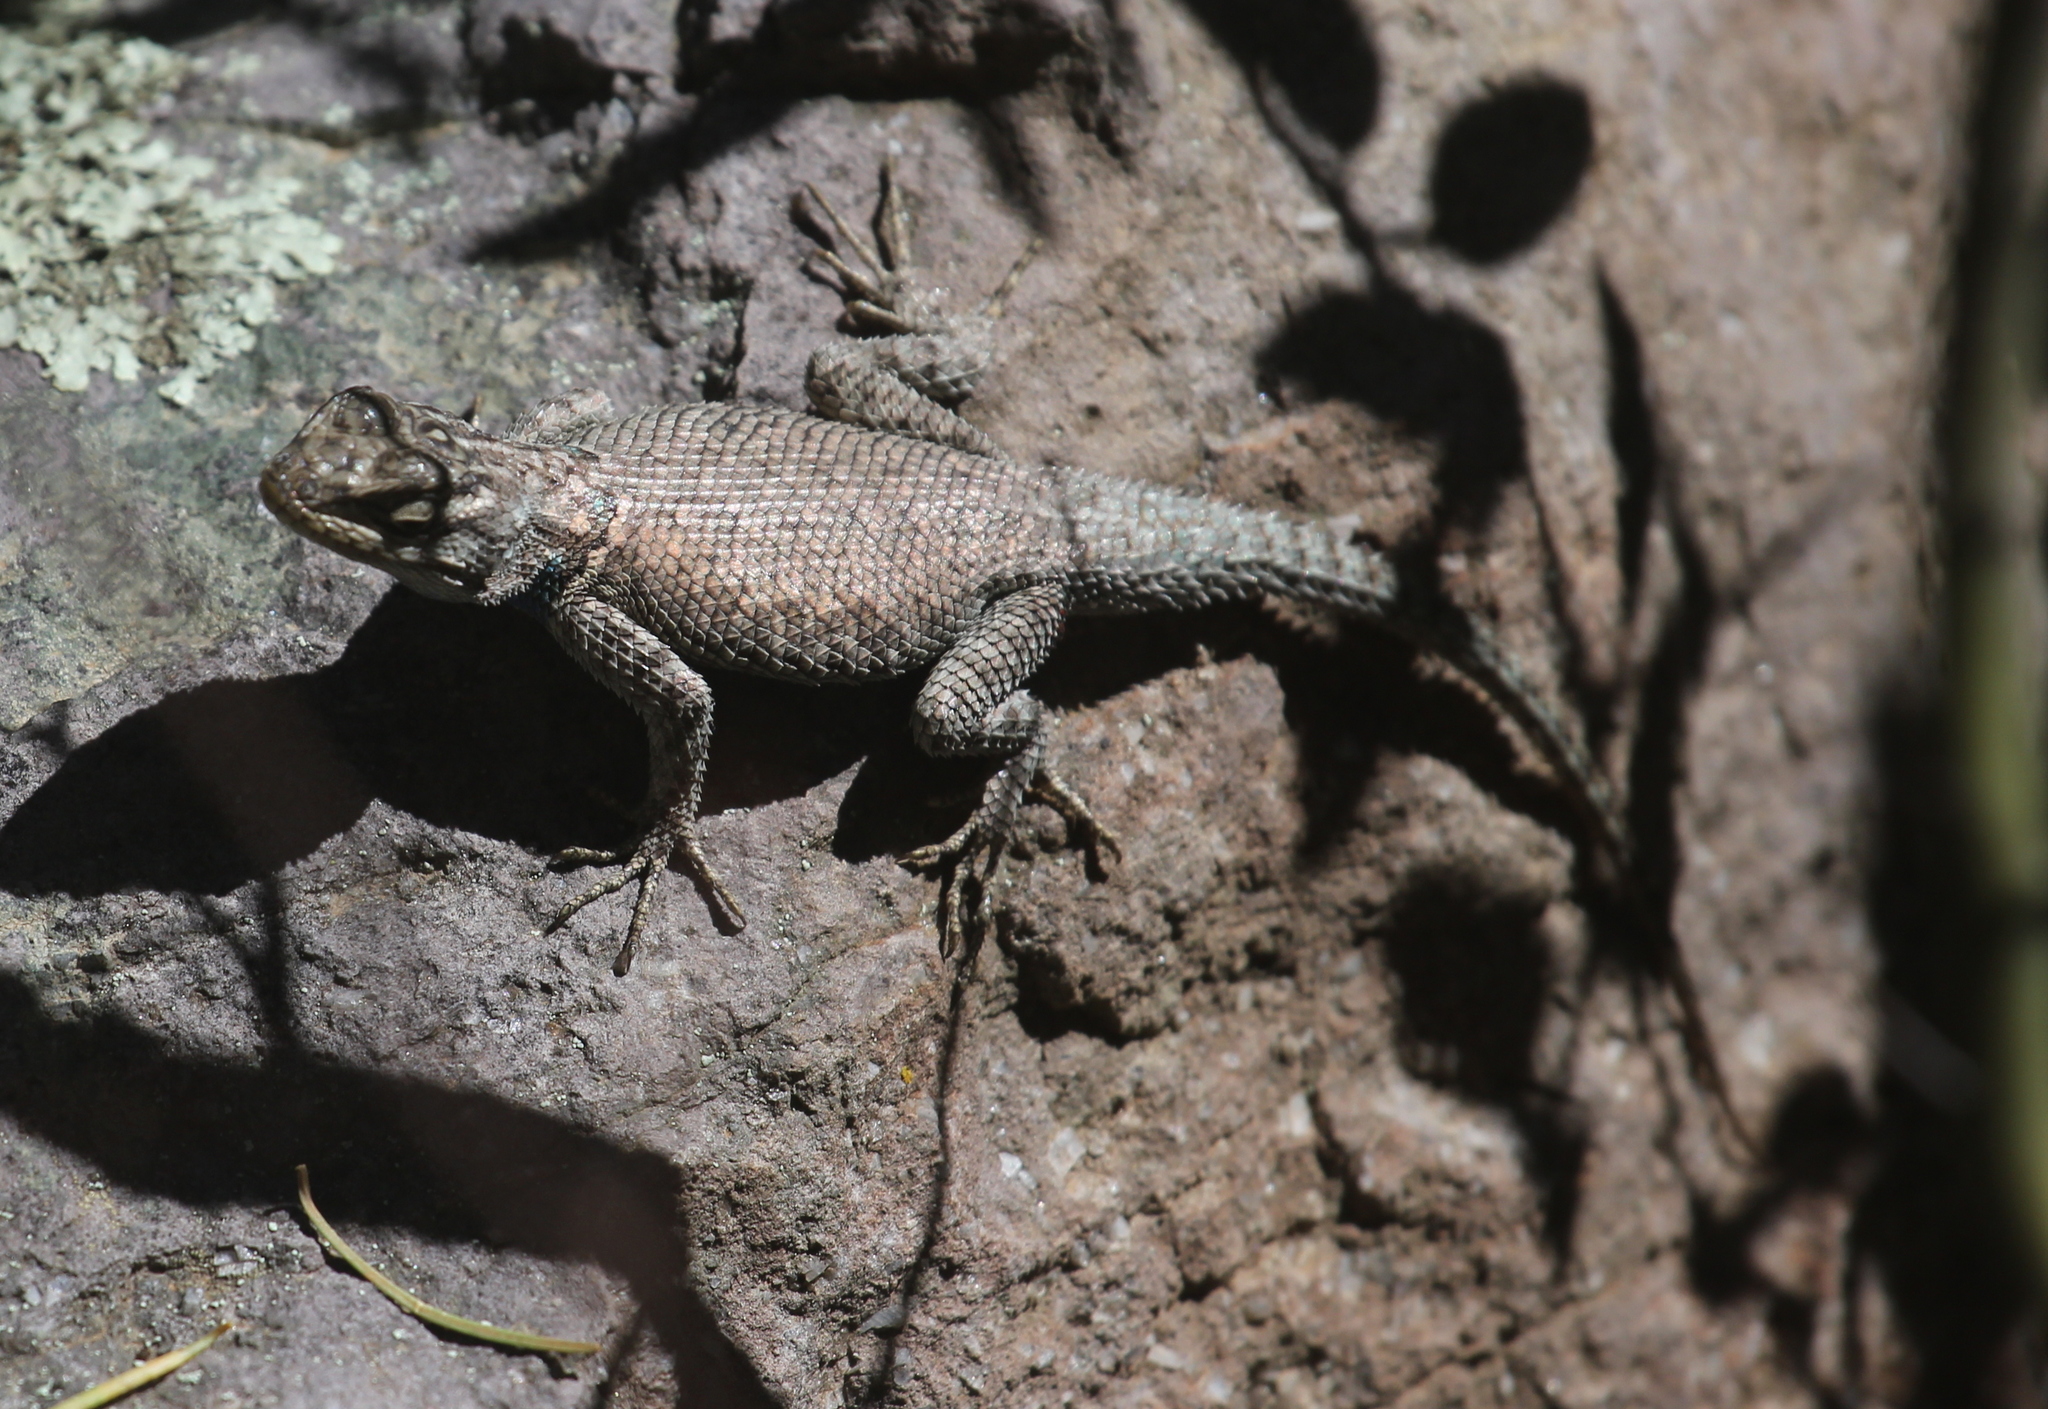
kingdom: Animalia
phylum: Chordata
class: Squamata
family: Phrynosomatidae
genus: Sceloporus
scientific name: Sceloporus jarrovii
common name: Yarrow's spiny lizard
